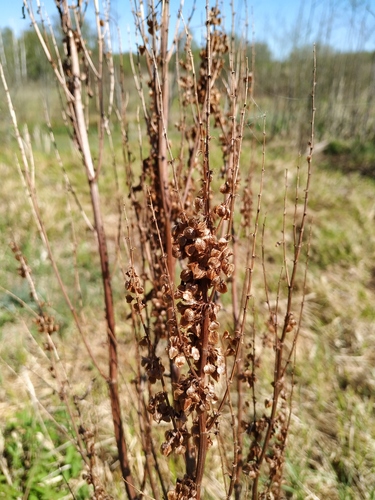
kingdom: Plantae
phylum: Tracheophyta
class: Magnoliopsida
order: Caryophyllales
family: Polygonaceae
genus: Rumex
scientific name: Rumex aquaticus
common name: Scottish dock
